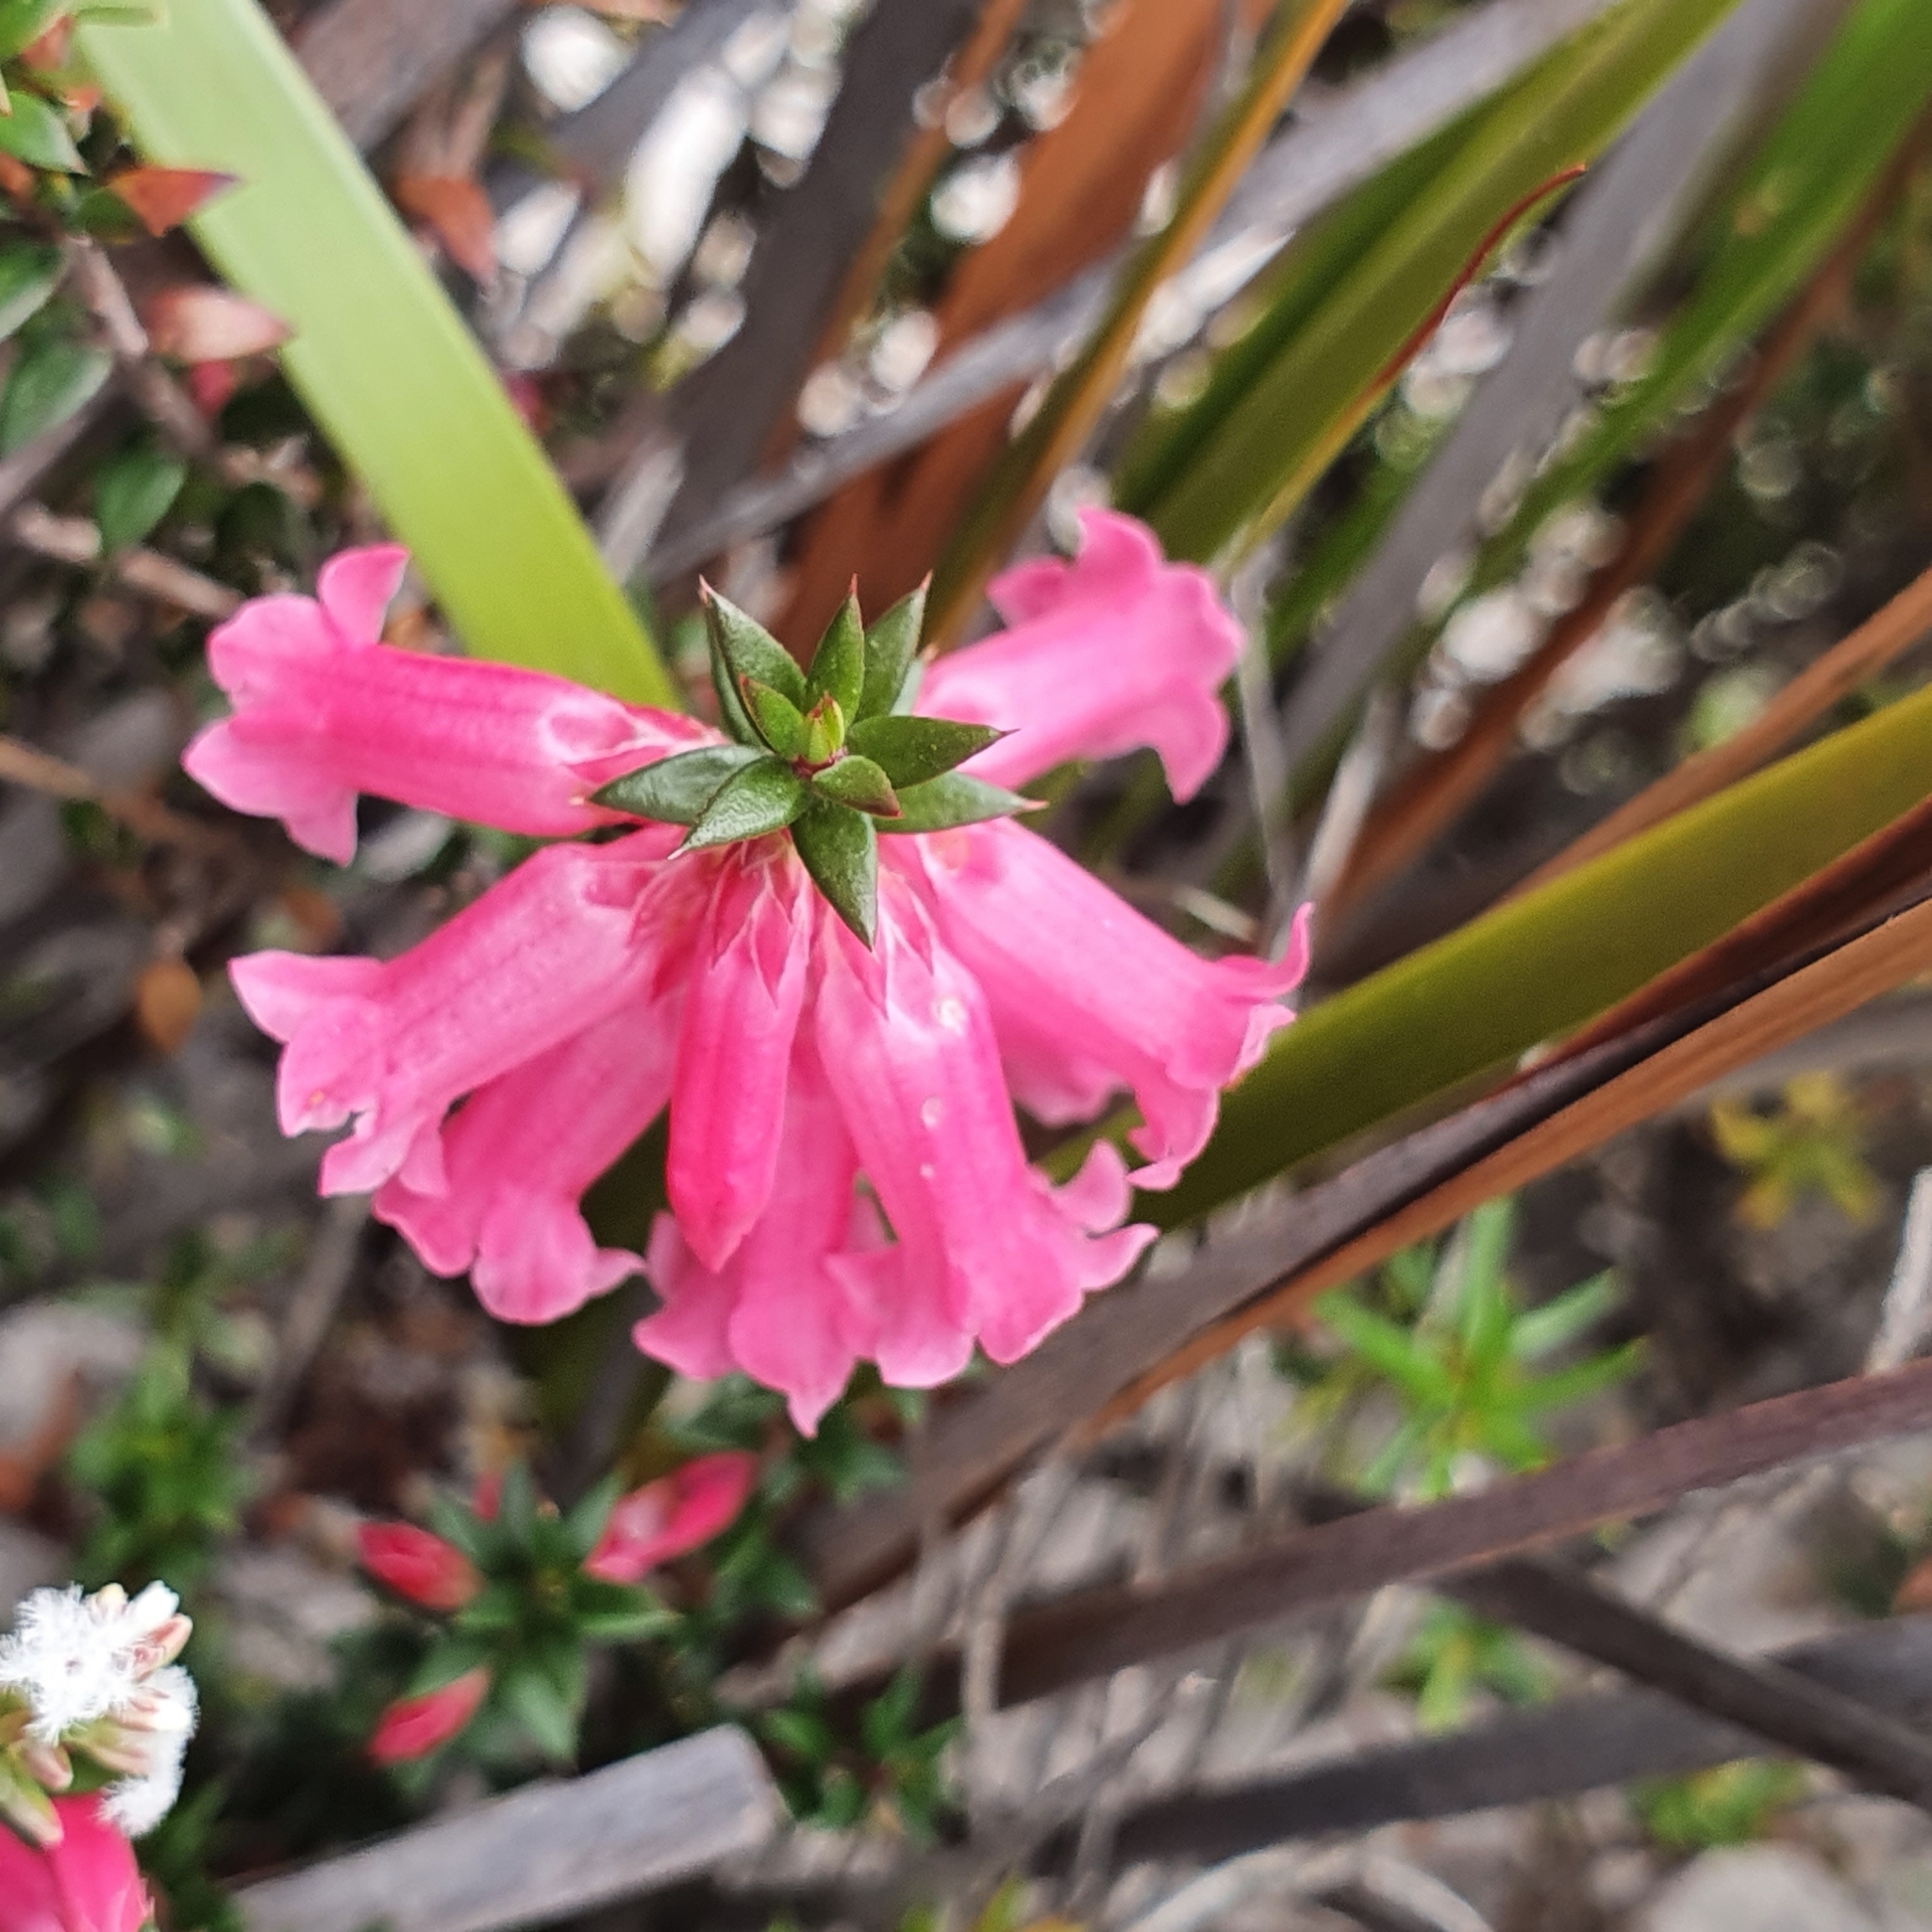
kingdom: Plantae
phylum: Tracheophyta
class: Magnoliopsida
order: Ericales
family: Ericaceae
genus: Epacris
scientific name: Epacris impressa
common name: Common-heath
